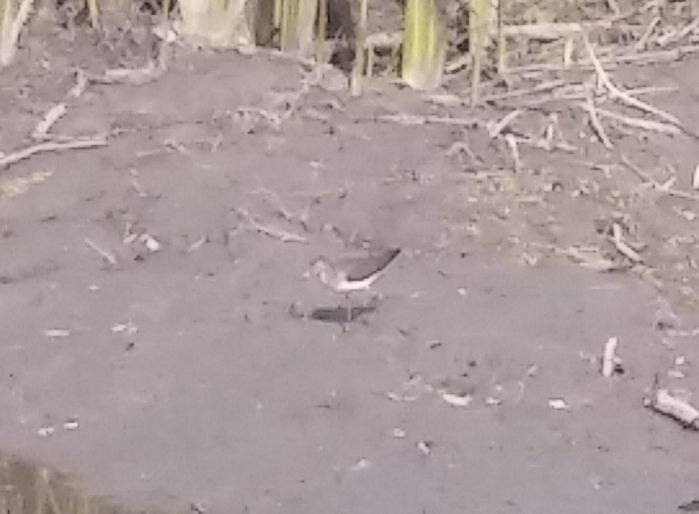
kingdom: Animalia
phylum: Chordata
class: Aves
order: Charadriiformes
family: Scolopacidae
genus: Tringa
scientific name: Tringa solitaria
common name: Solitary sandpiper
